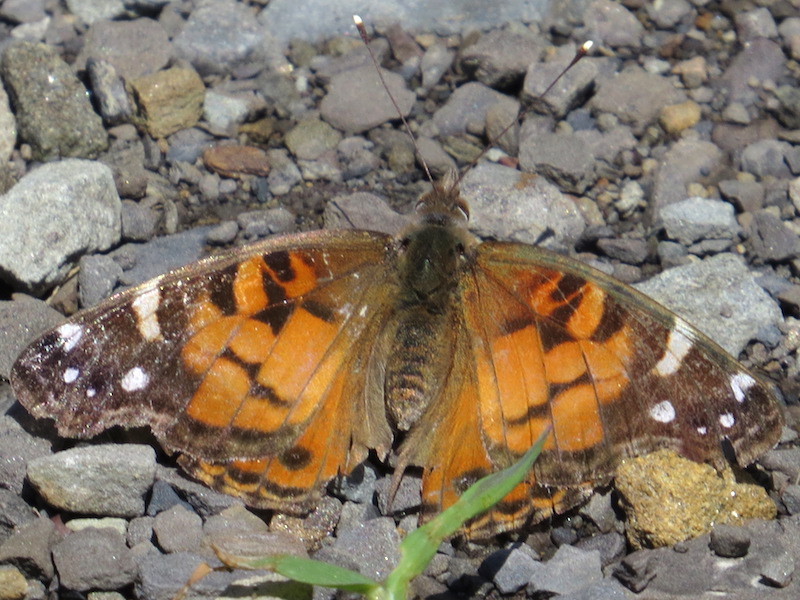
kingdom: Animalia
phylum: Arthropoda
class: Insecta
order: Lepidoptera
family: Nymphalidae
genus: Vanessa
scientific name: Vanessa virginiensis
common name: American lady
